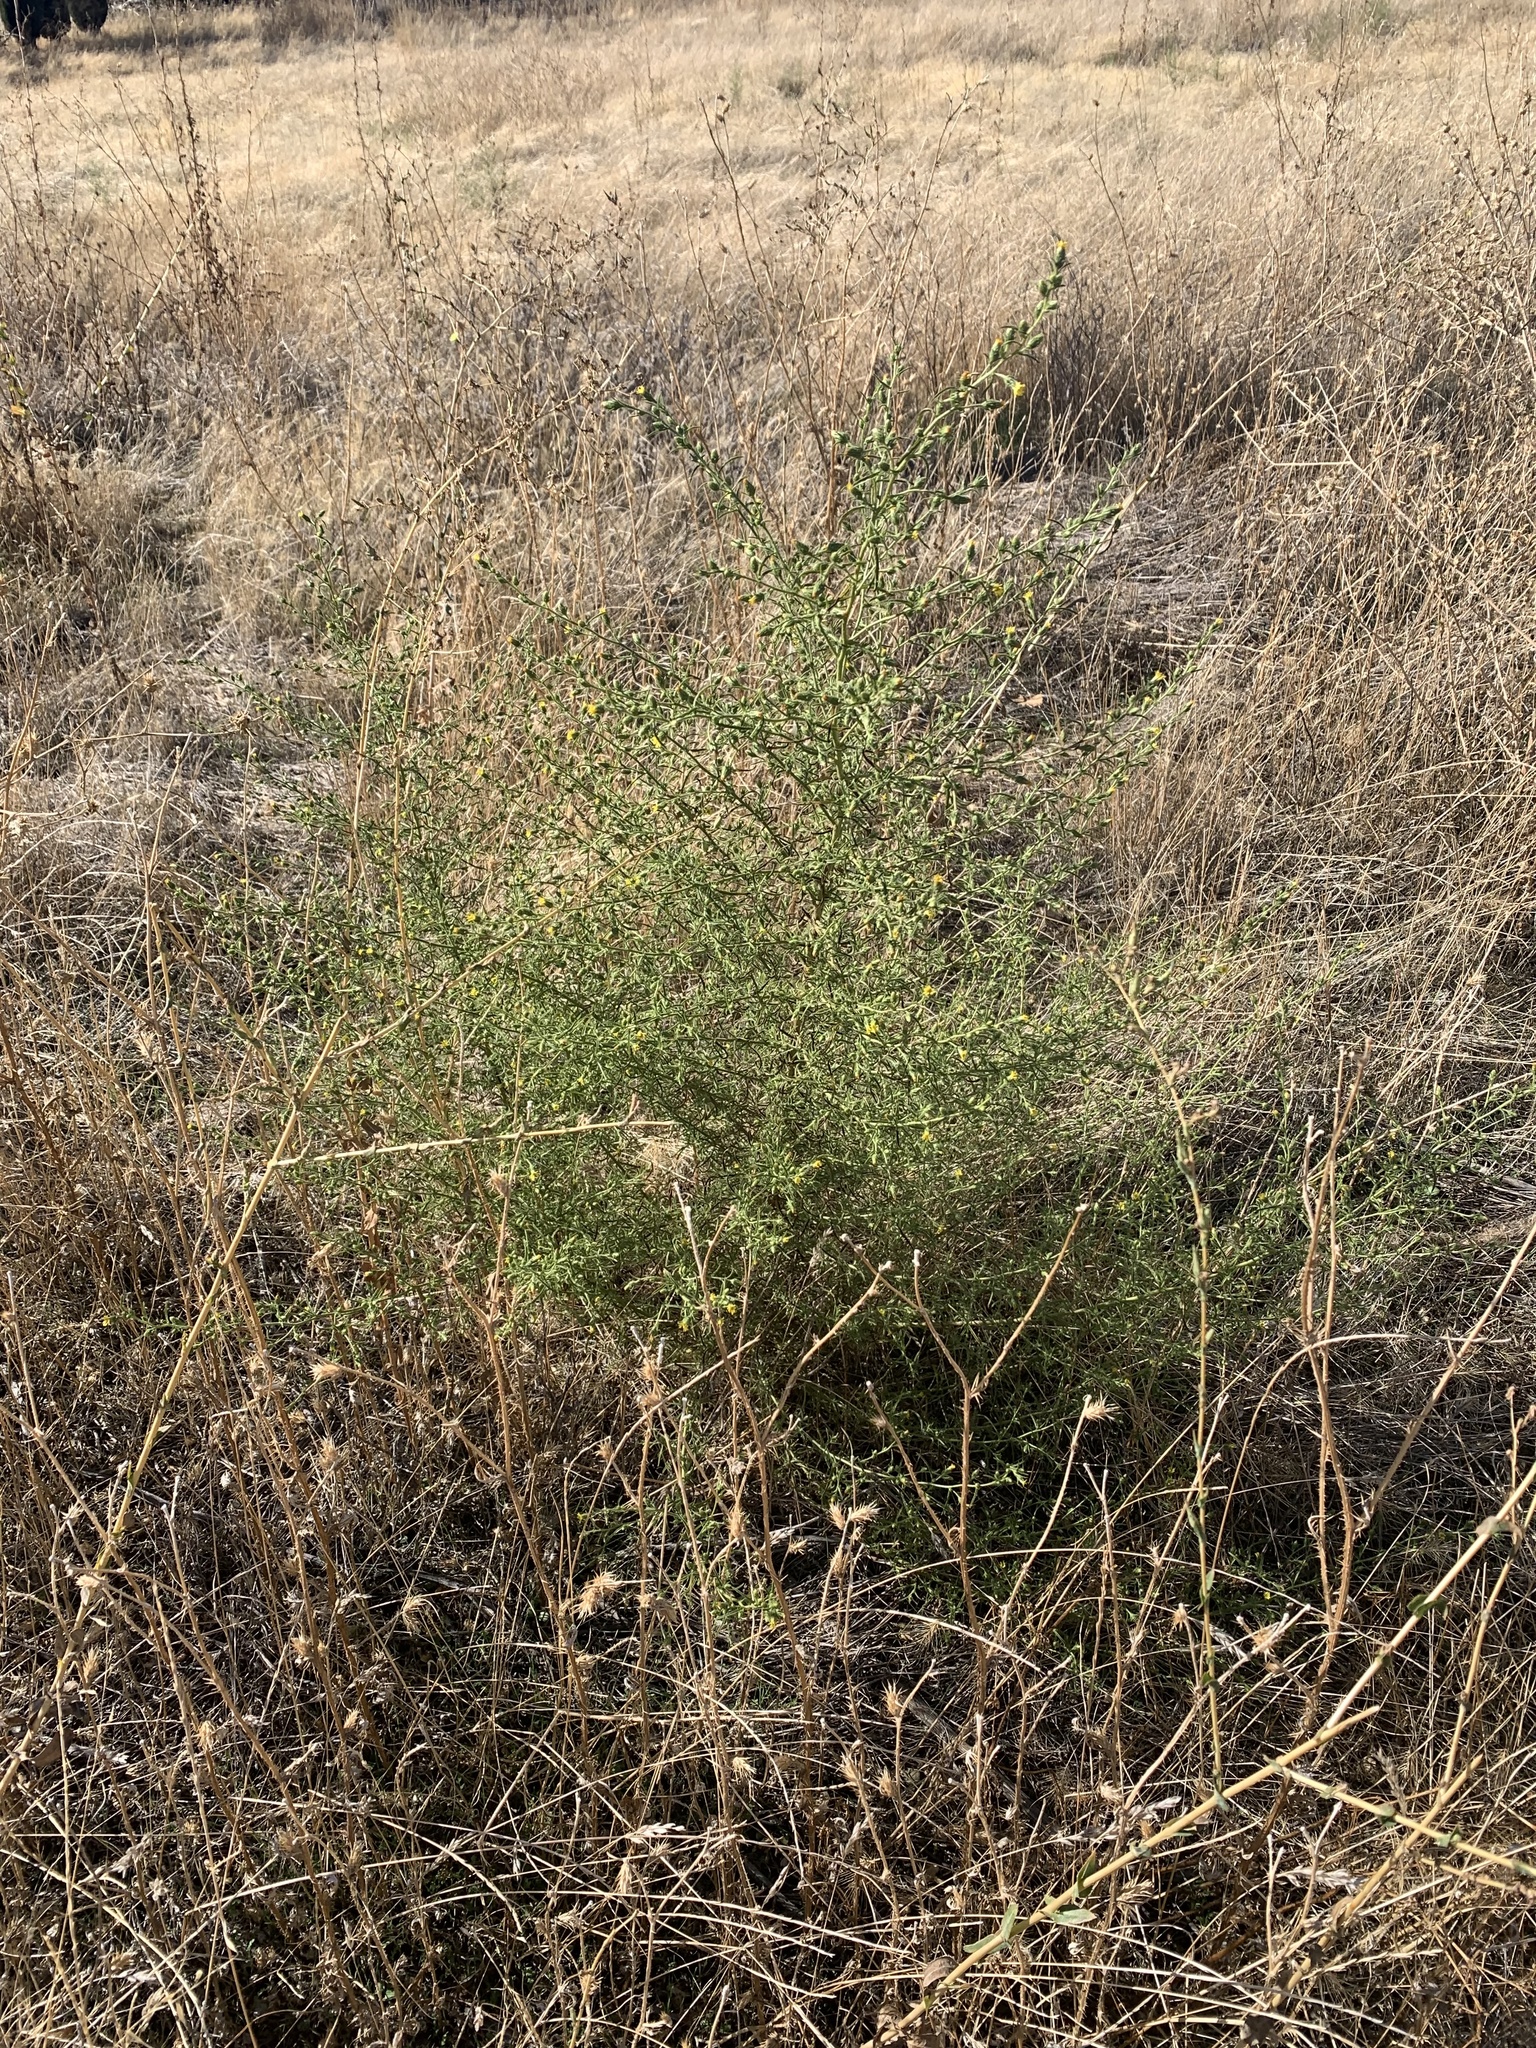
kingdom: Plantae
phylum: Tracheophyta
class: Magnoliopsida
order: Asterales
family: Asteraceae
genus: Dittrichia
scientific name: Dittrichia graveolens
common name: Stinking fleabane
